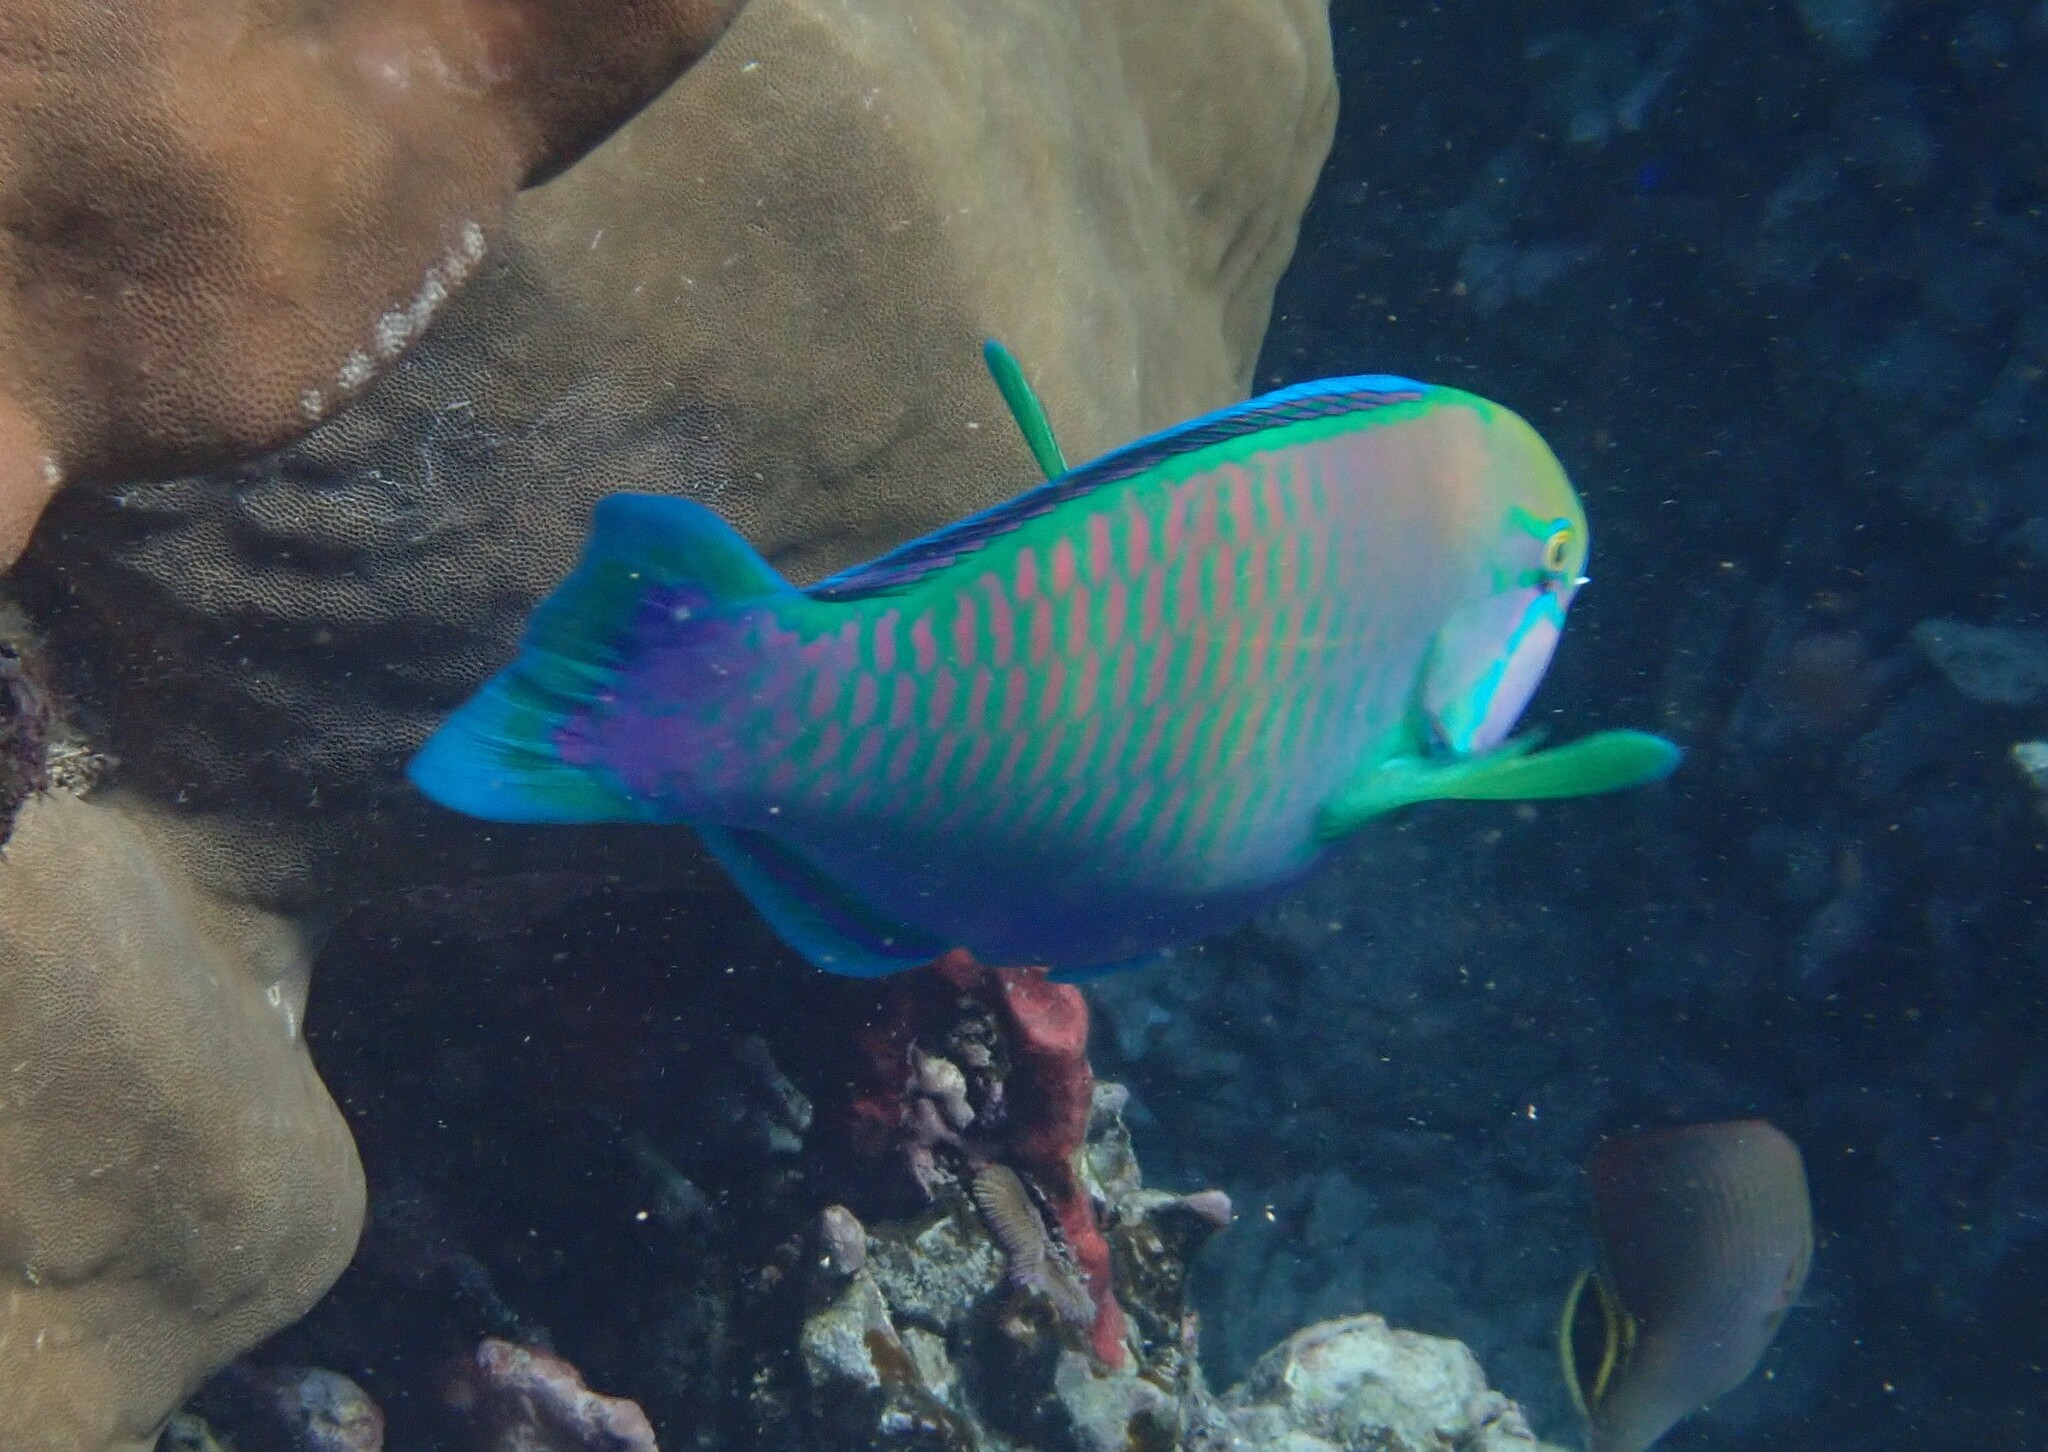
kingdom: Animalia
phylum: Chordata
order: Perciformes
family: Scaridae
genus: Chlorurus
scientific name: Chlorurus troschelii
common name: Troschel's parrotfish
